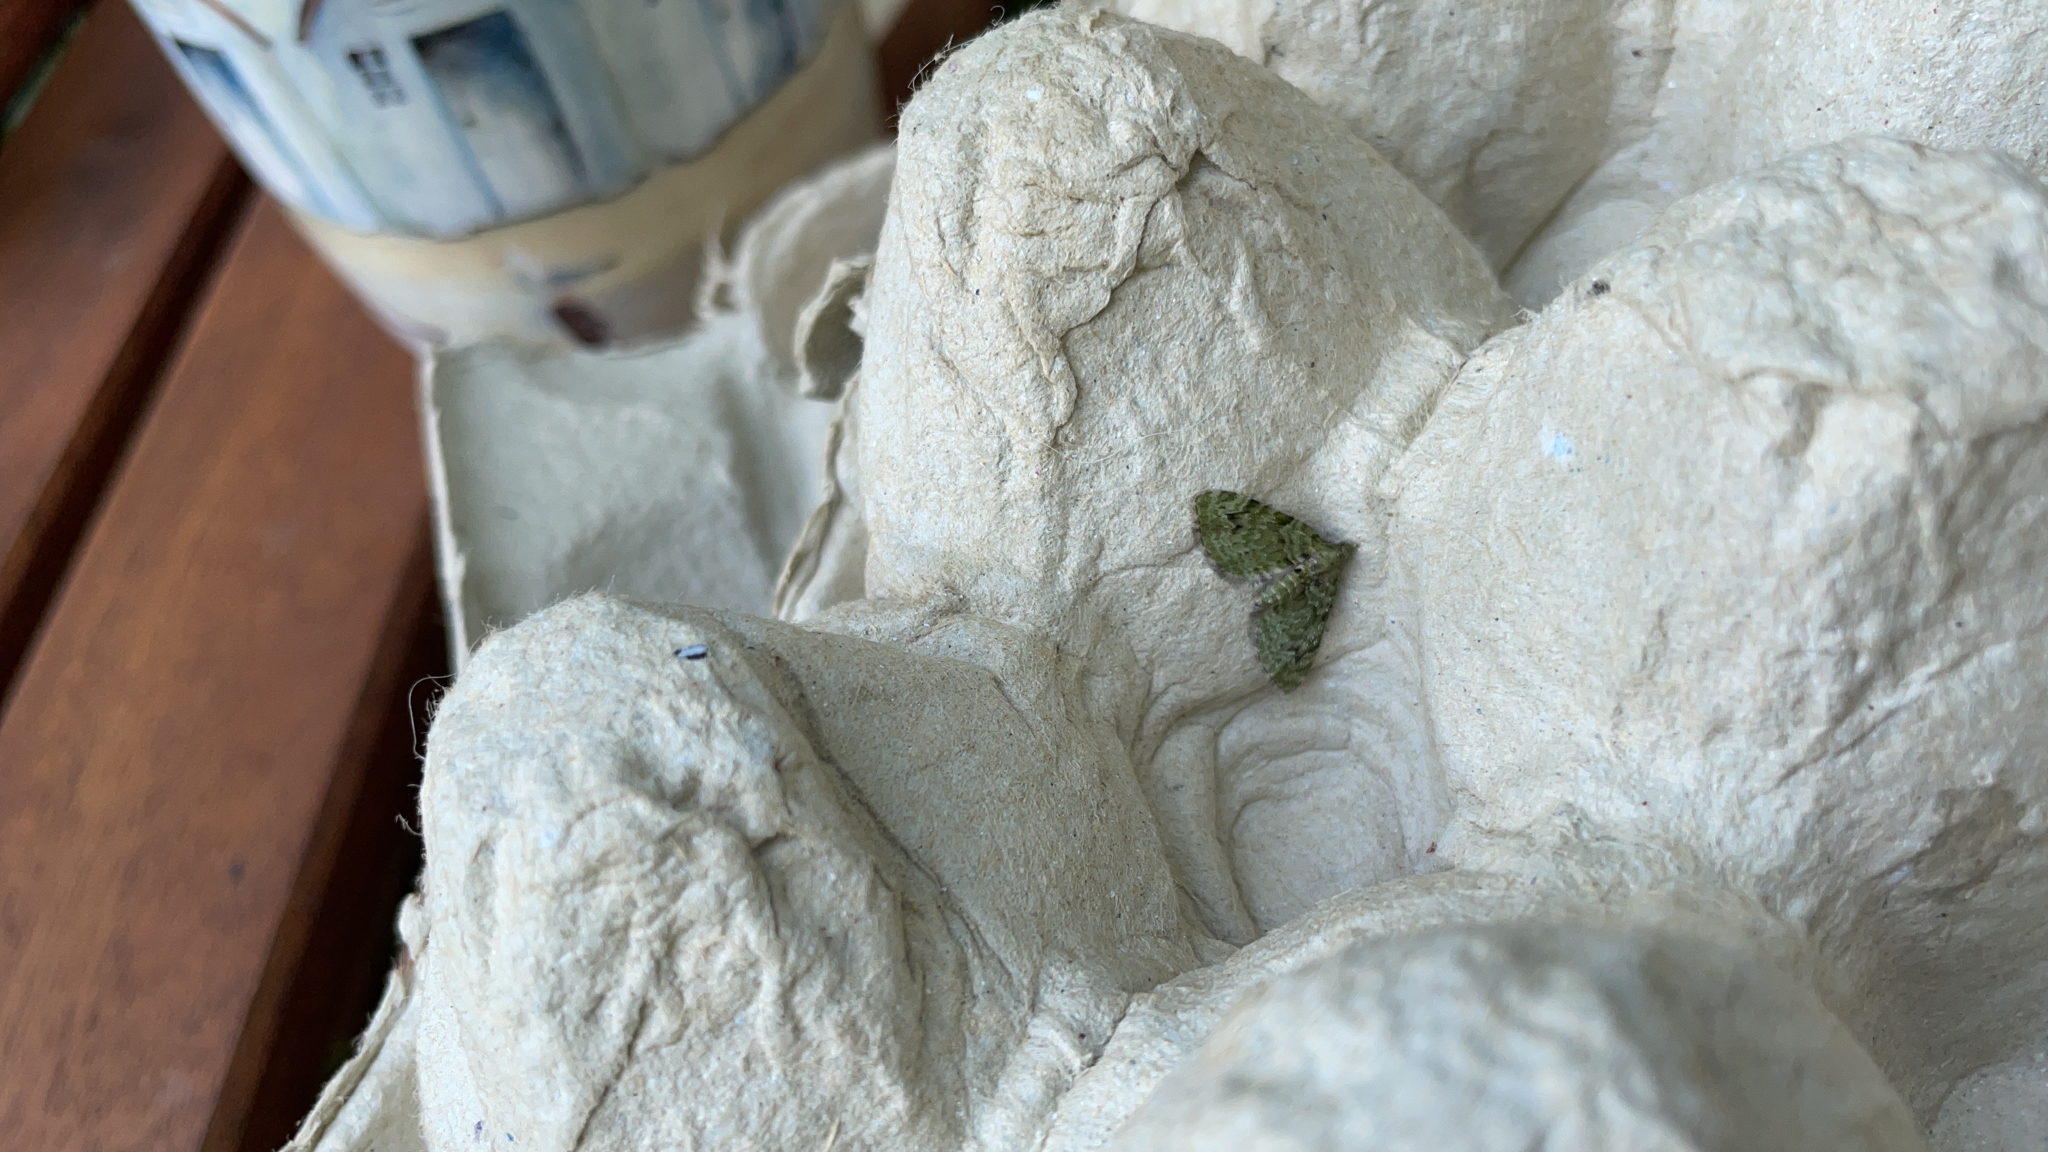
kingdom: Animalia
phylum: Arthropoda
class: Insecta
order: Lepidoptera
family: Geometridae
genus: Chloroclystis
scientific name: Chloroclystis v-ata
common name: V-pug
